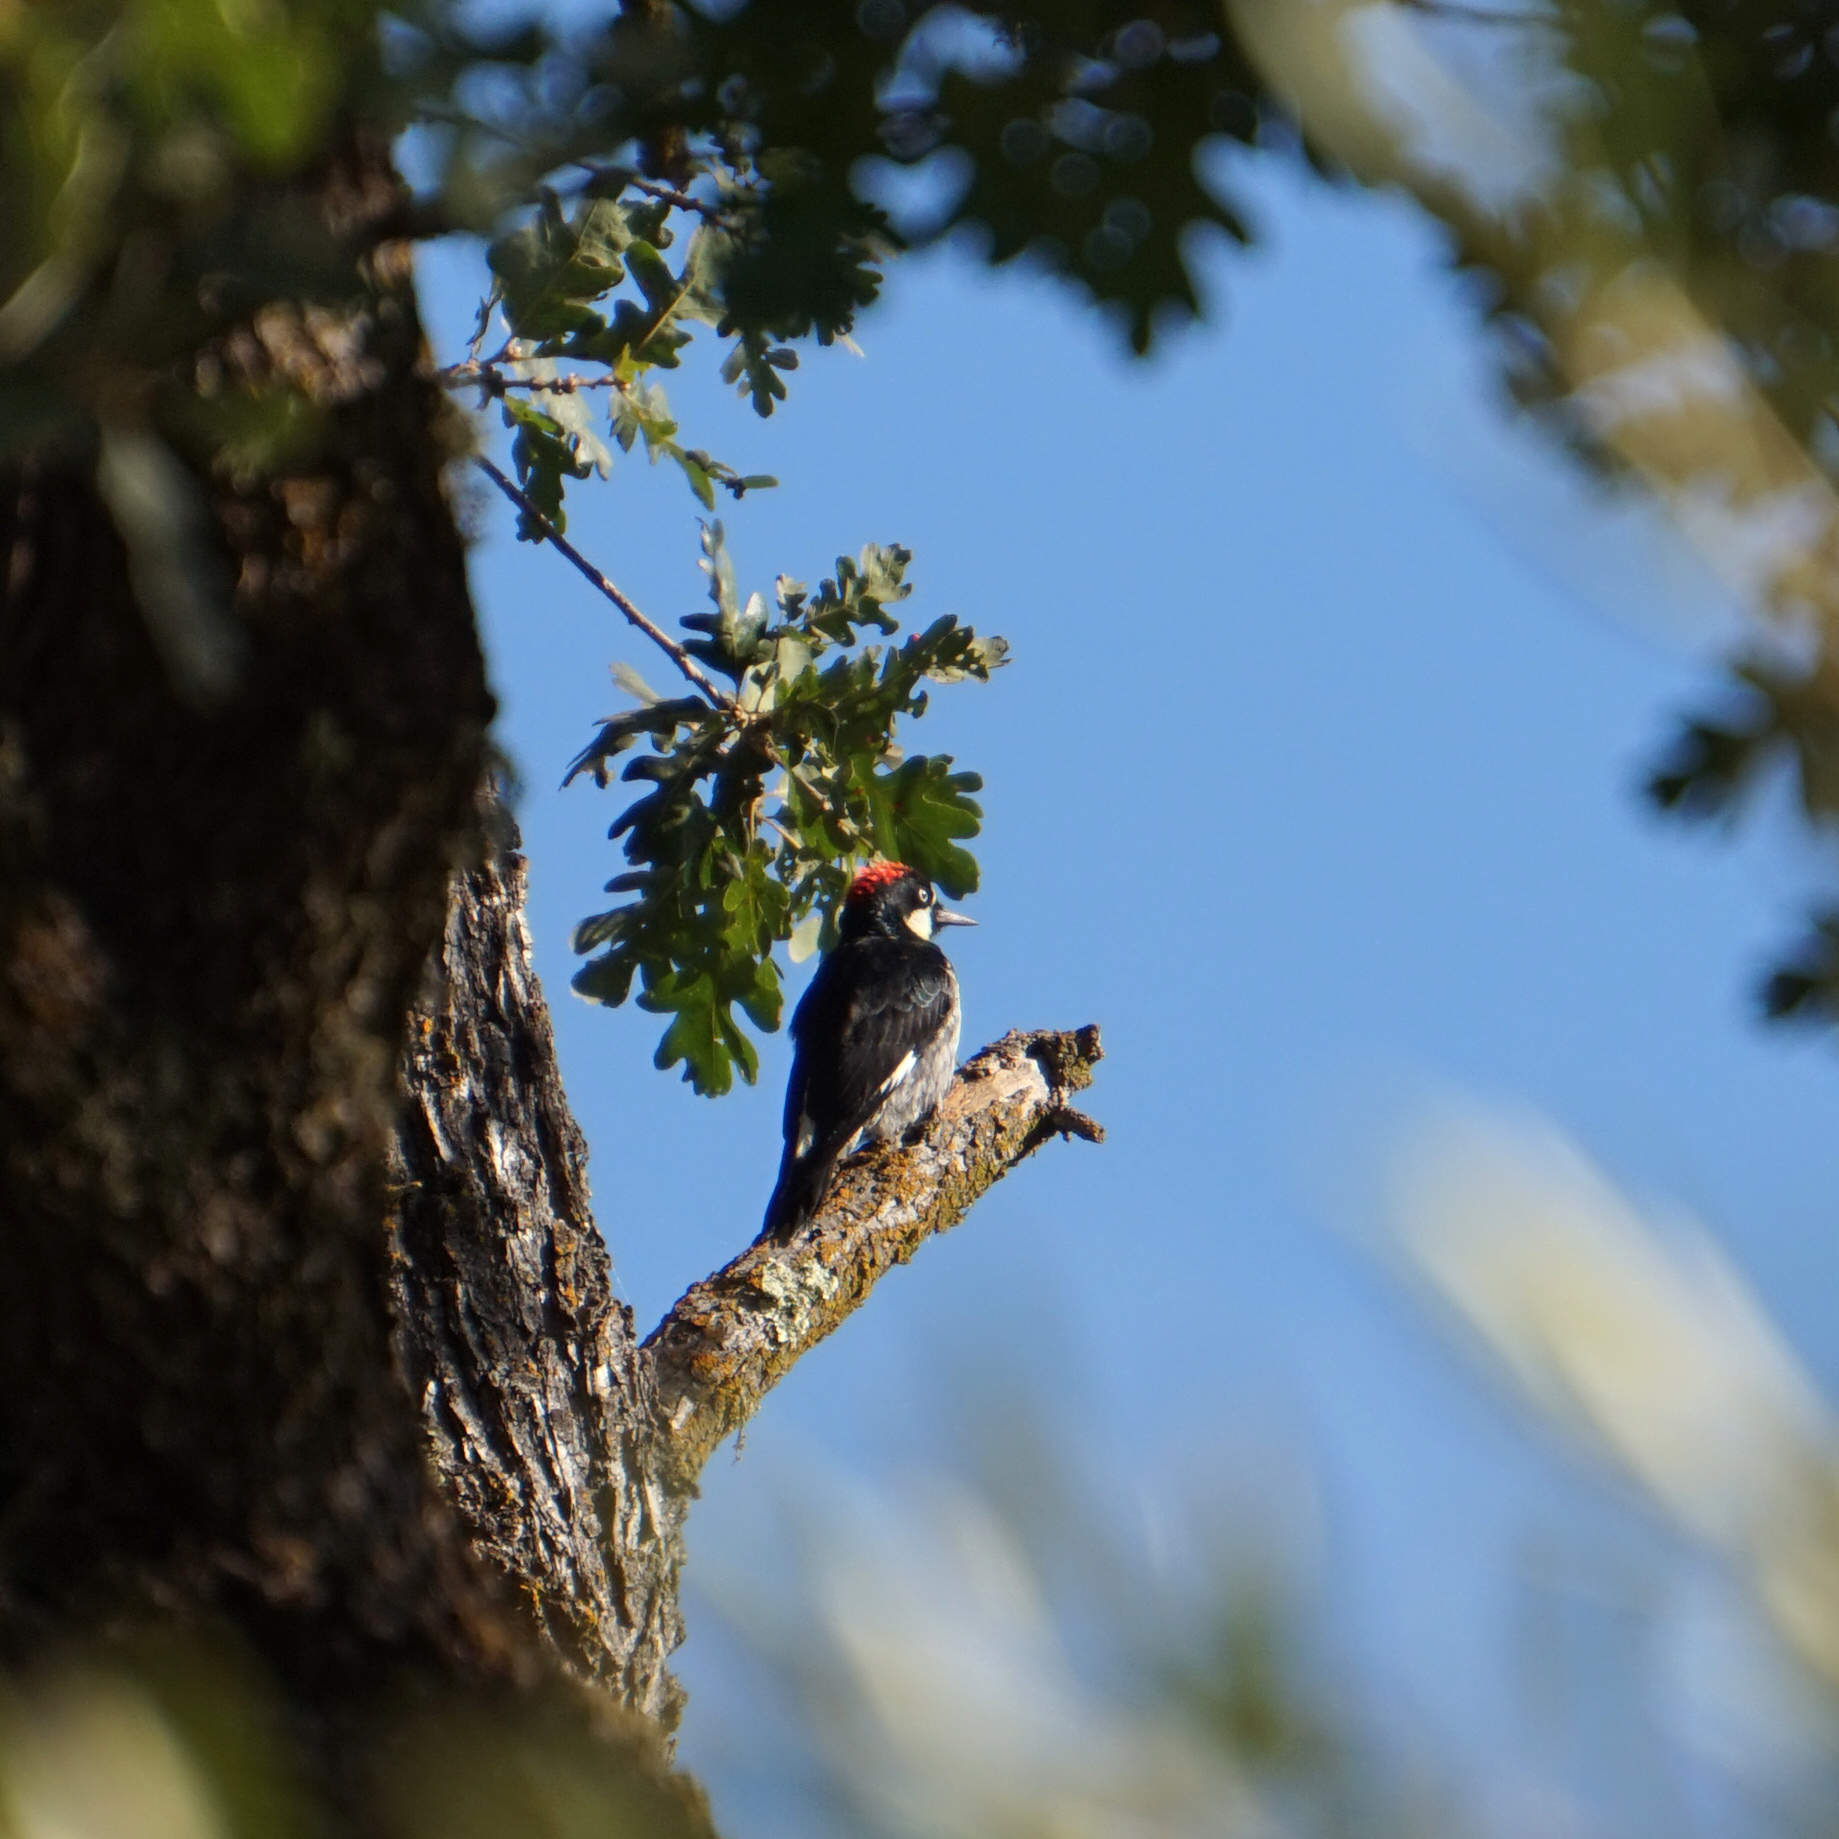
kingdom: Animalia
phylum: Chordata
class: Aves
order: Piciformes
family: Picidae
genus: Melanerpes
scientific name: Melanerpes formicivorus
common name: Acorn woodpecker
